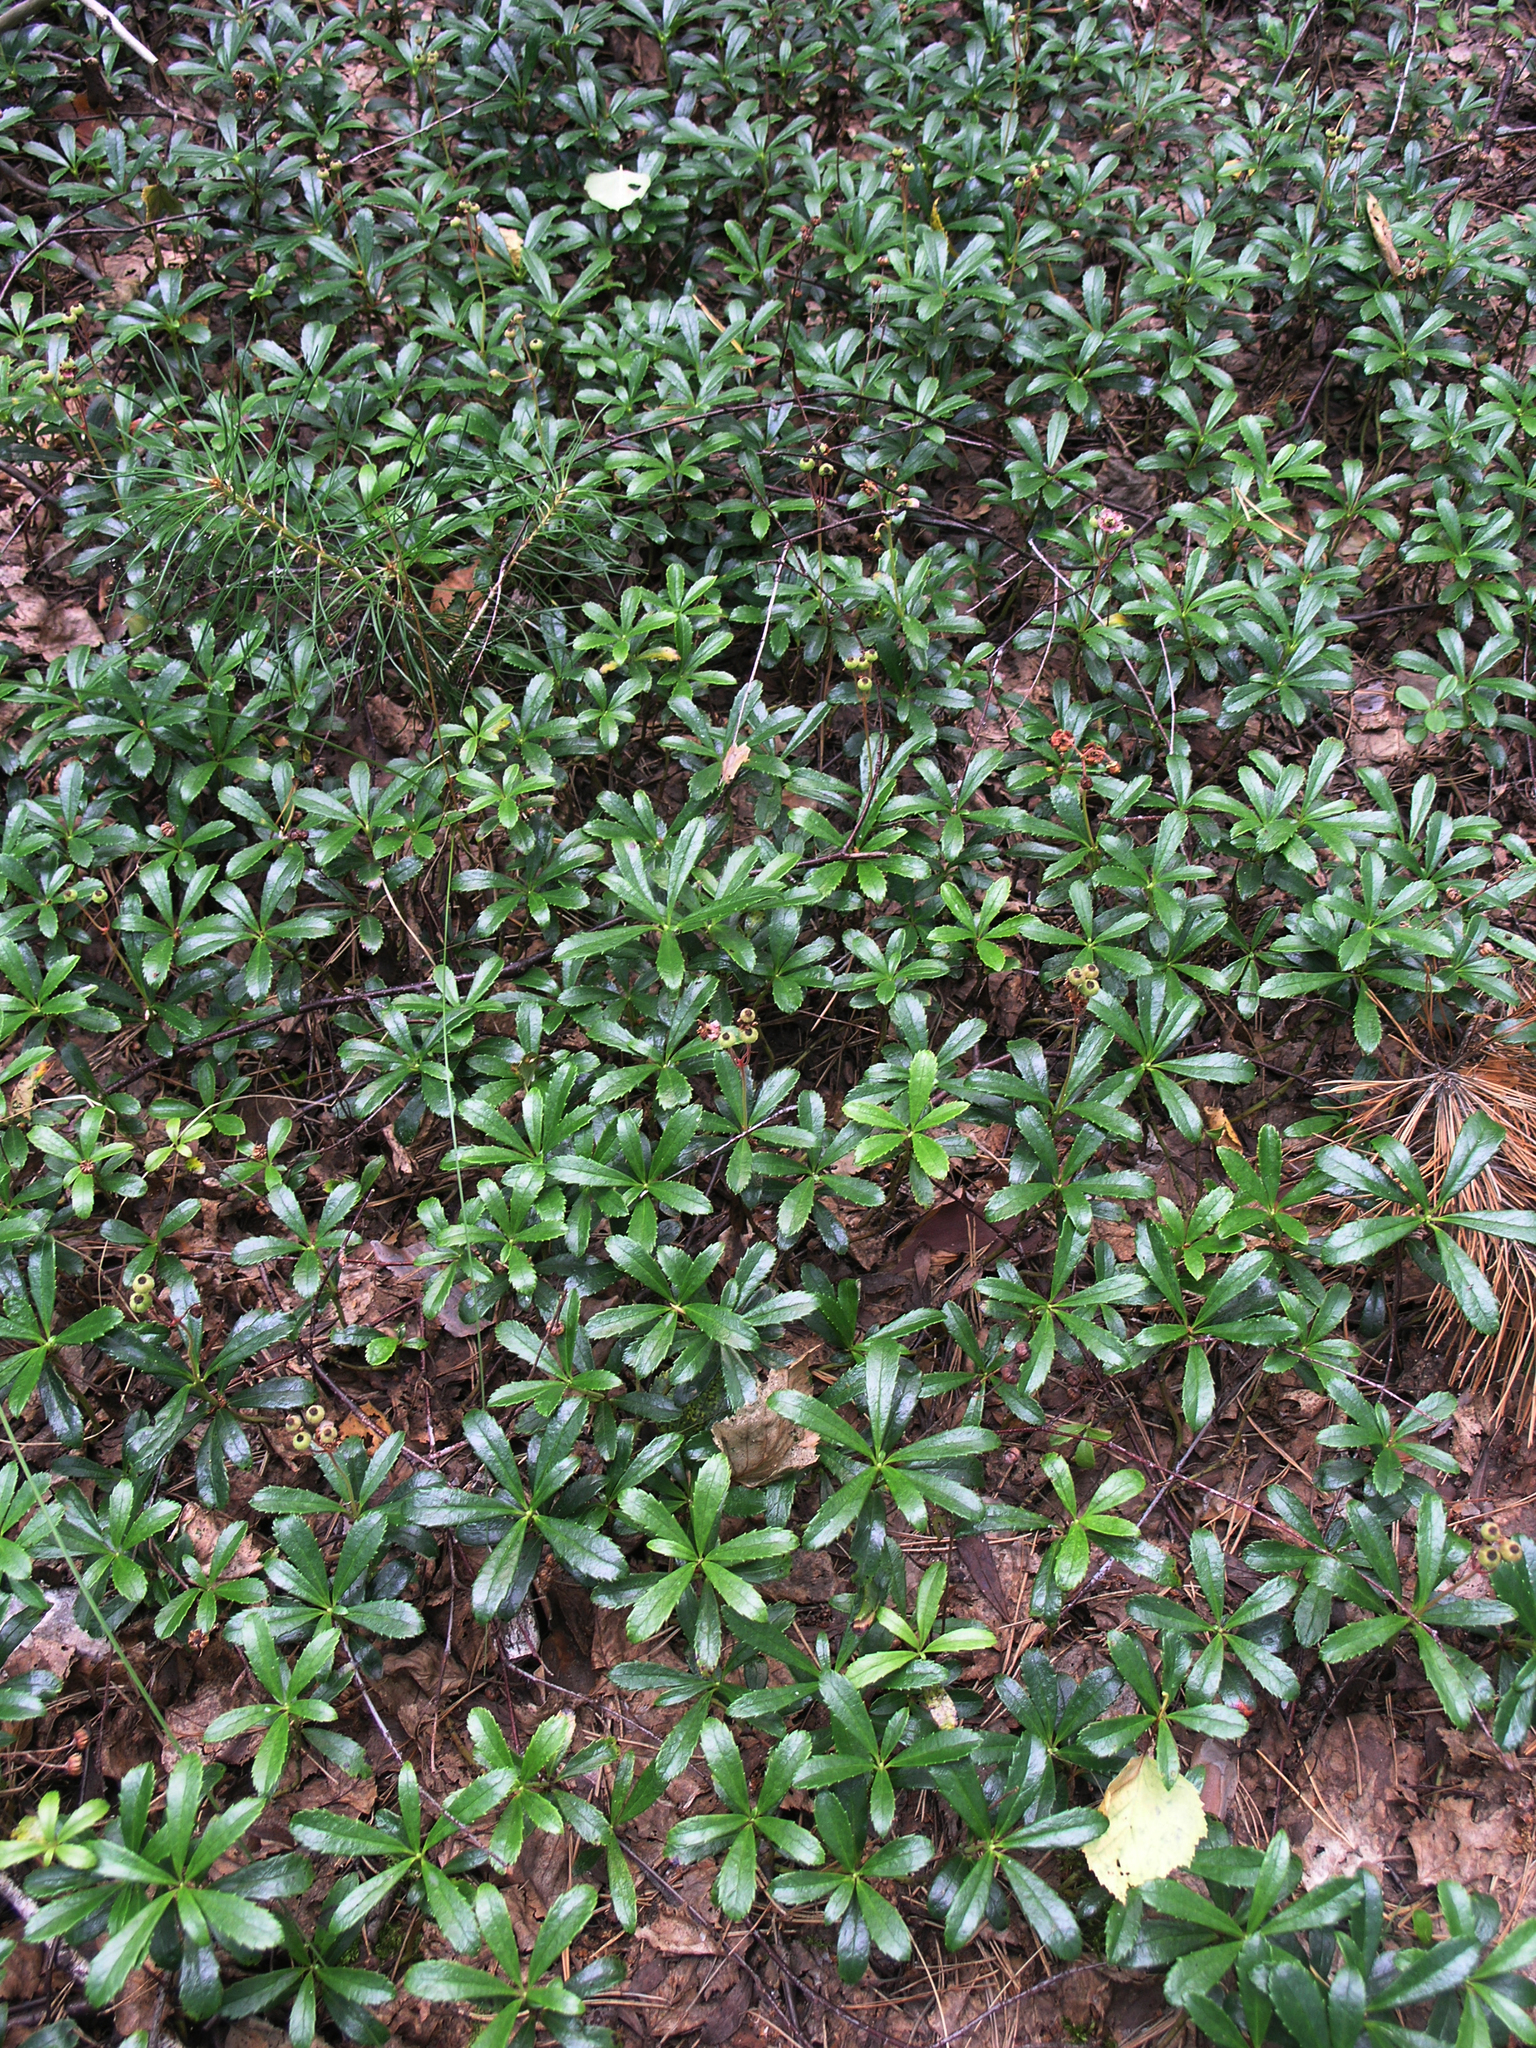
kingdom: Plantae
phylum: Tracheophyta
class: Magnoliopsida
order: Ericales
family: Ericaceae
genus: Chimaphila
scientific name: Chimaphila umbellata
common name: Pipsissewa
